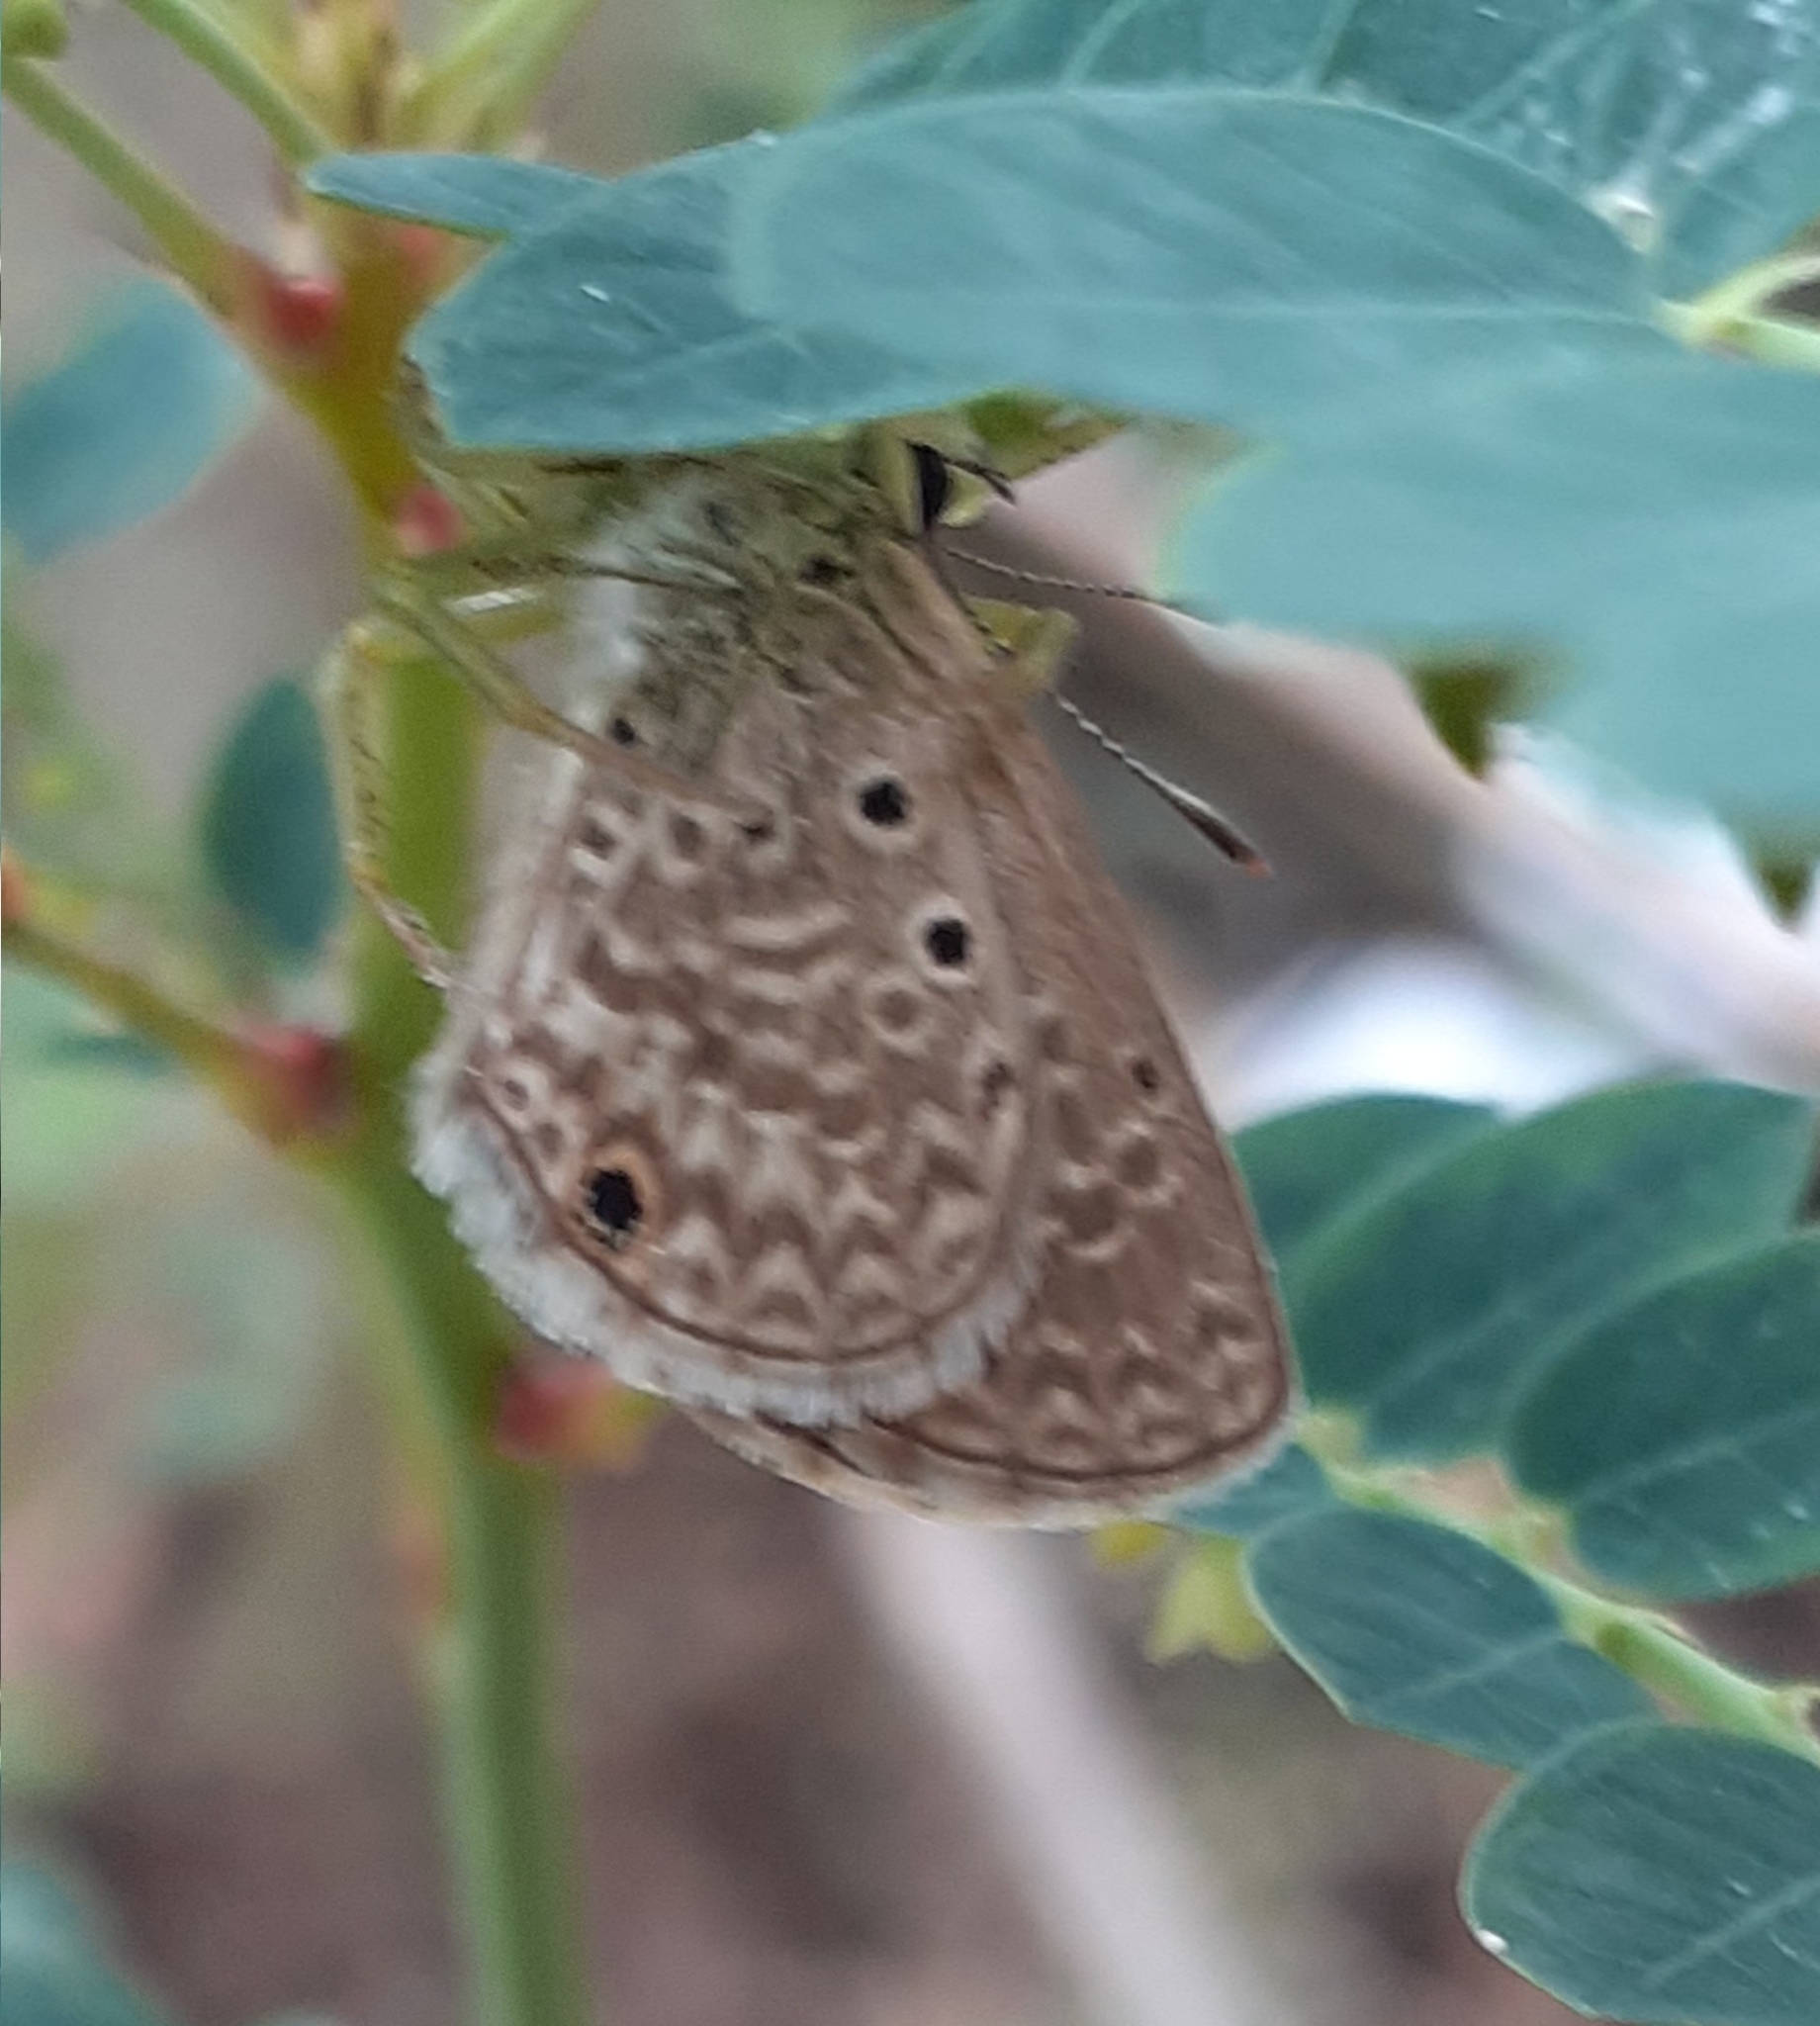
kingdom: Animalia
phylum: Arthropoda
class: Insecta
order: Lepidoptera
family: Lycaenidae
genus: Hemiargus
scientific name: Hemiargus hanno
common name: Common blue
